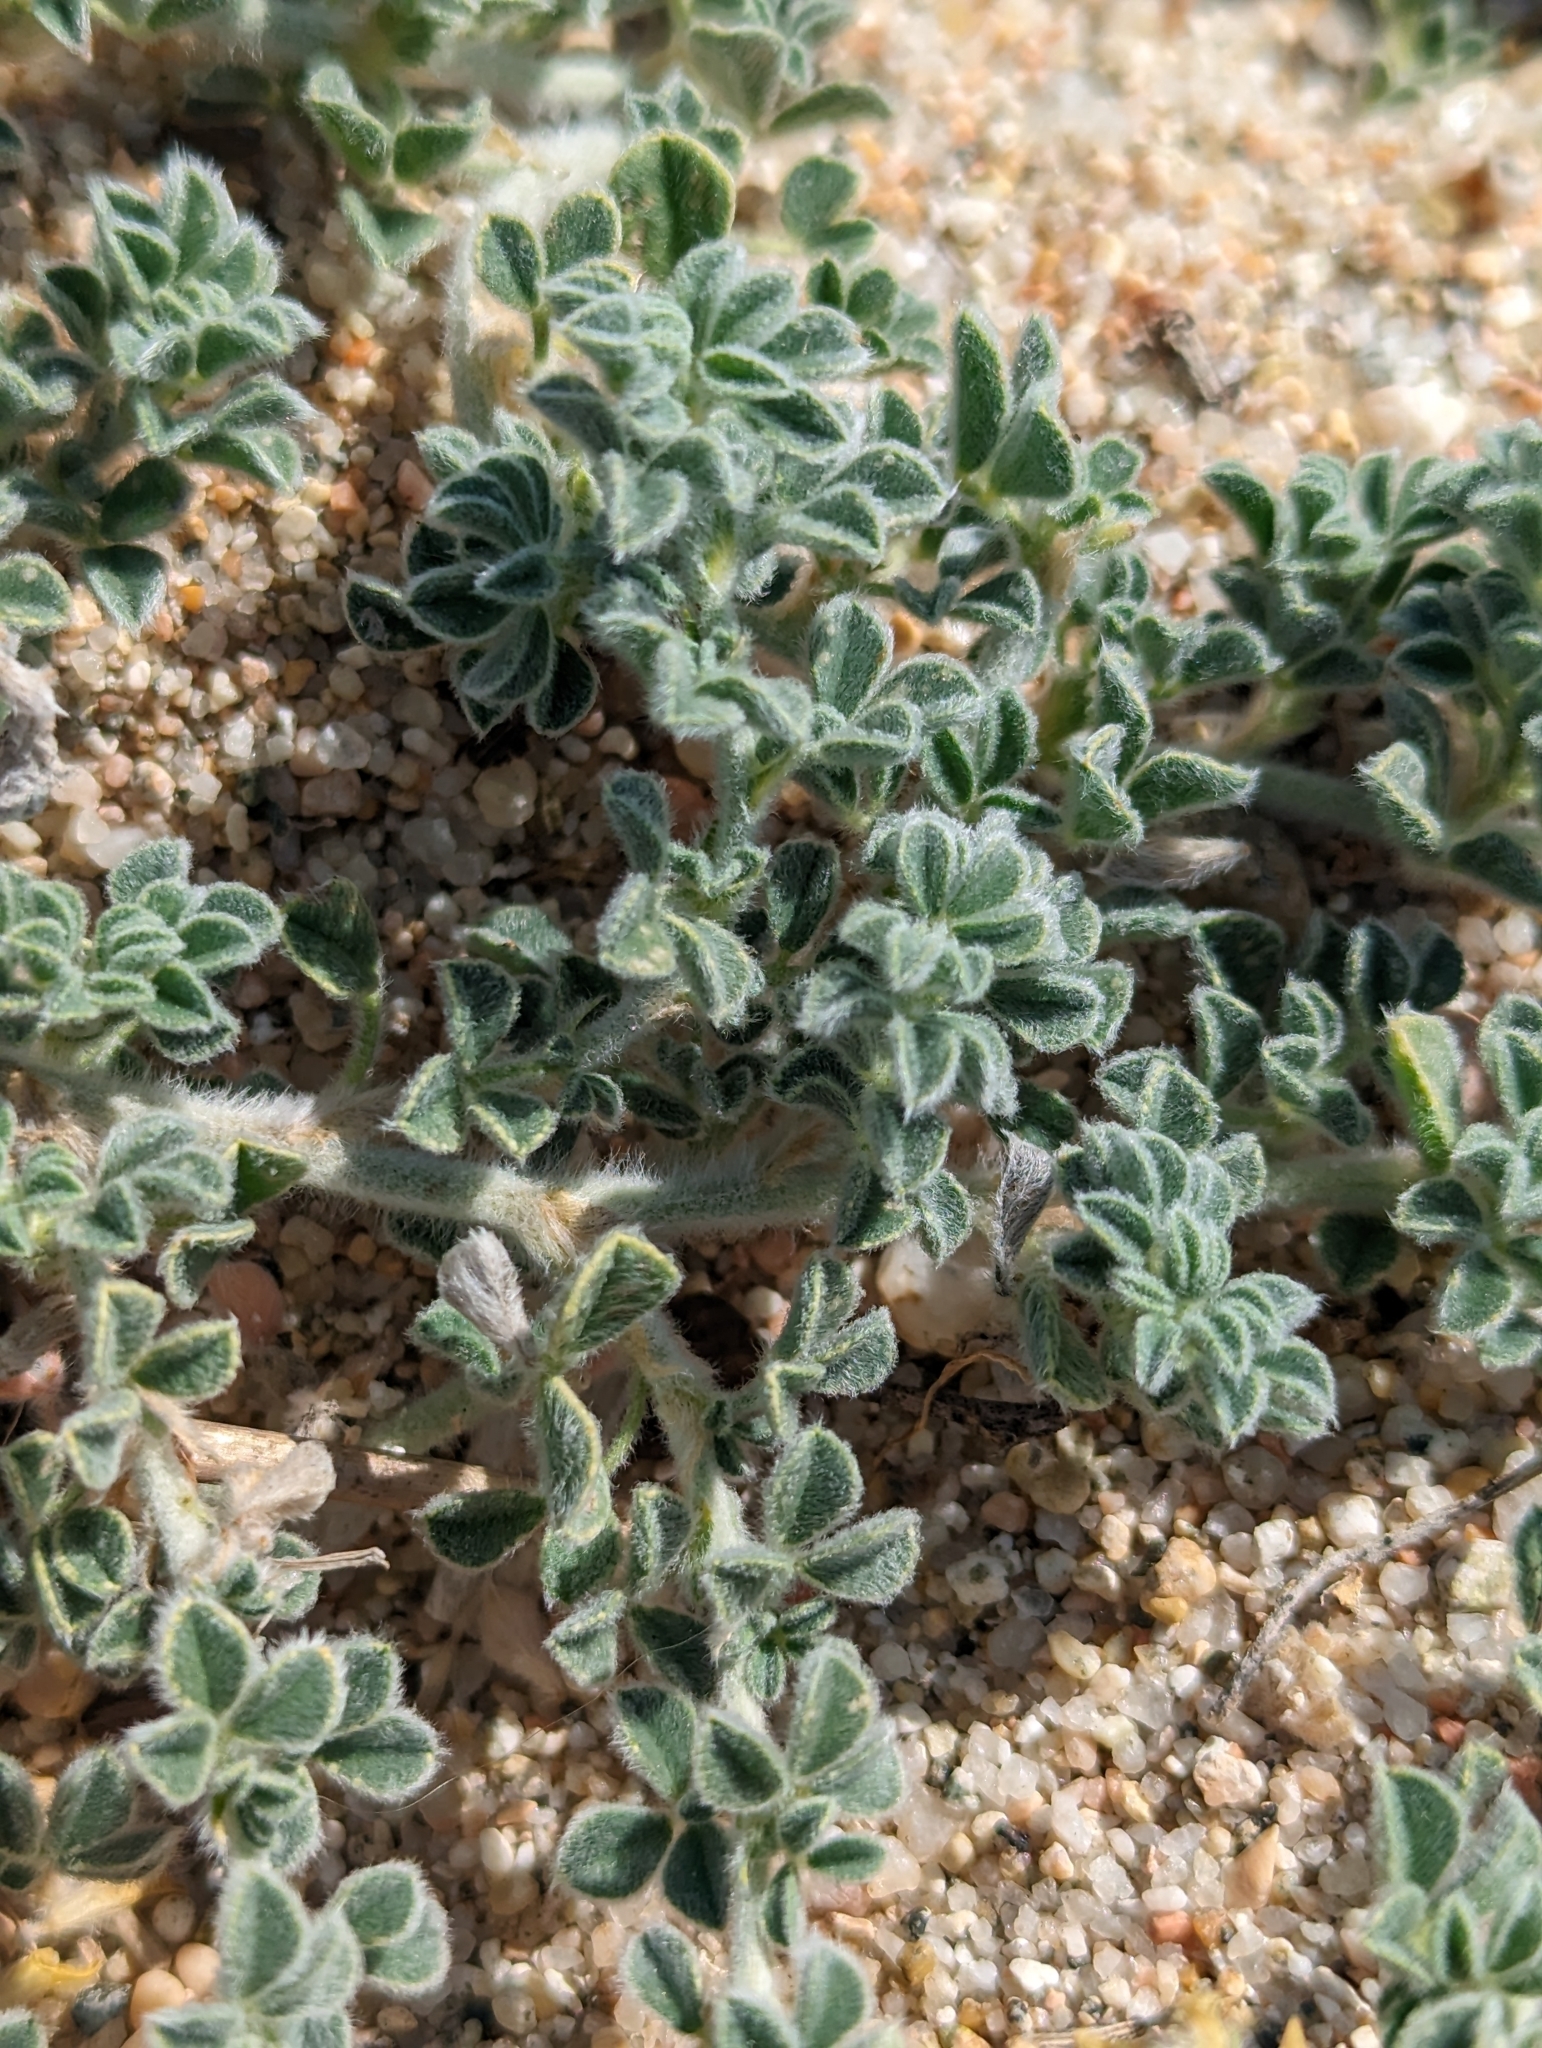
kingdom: Plantae
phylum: Tracheophyta
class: Magnoliopsida
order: Fabales
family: Fabaceae
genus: Medicago
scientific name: Medicago marina
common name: Sea medick
